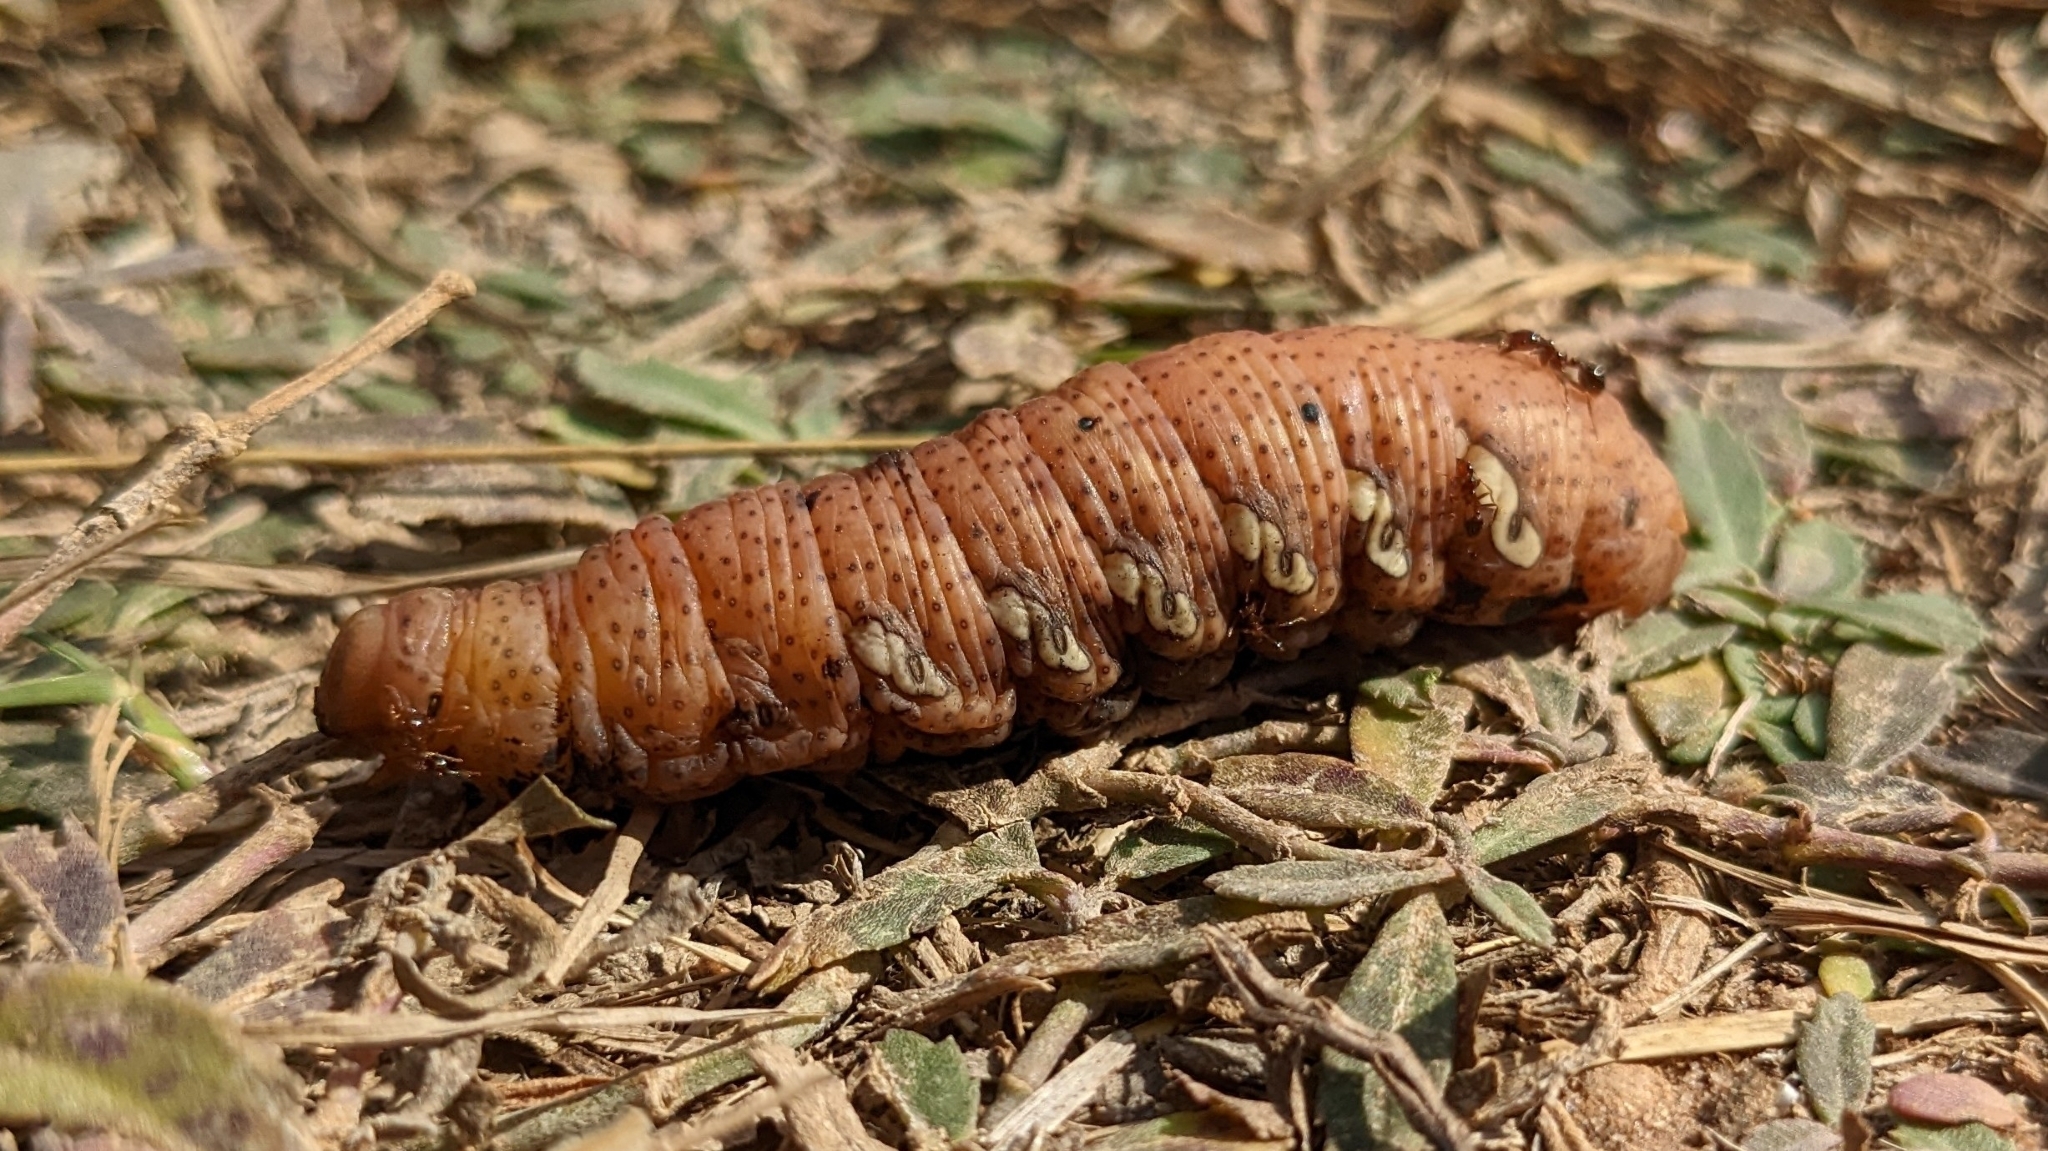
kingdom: Animalia
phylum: Arthropoda
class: Insecta
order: Lepidoptera
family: Sphingidae
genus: Eumorpha
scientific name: Eumorpha achemon
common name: Achemon sphinx
